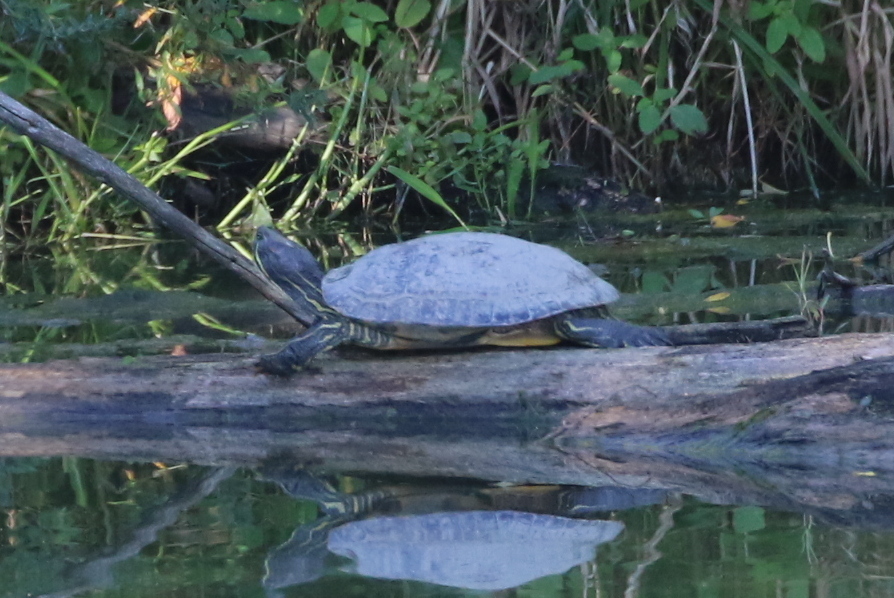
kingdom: Animalia
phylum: Chordata
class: Testudines
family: Emydidae
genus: Trachemys
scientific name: Trachemys scripta
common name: Slider
